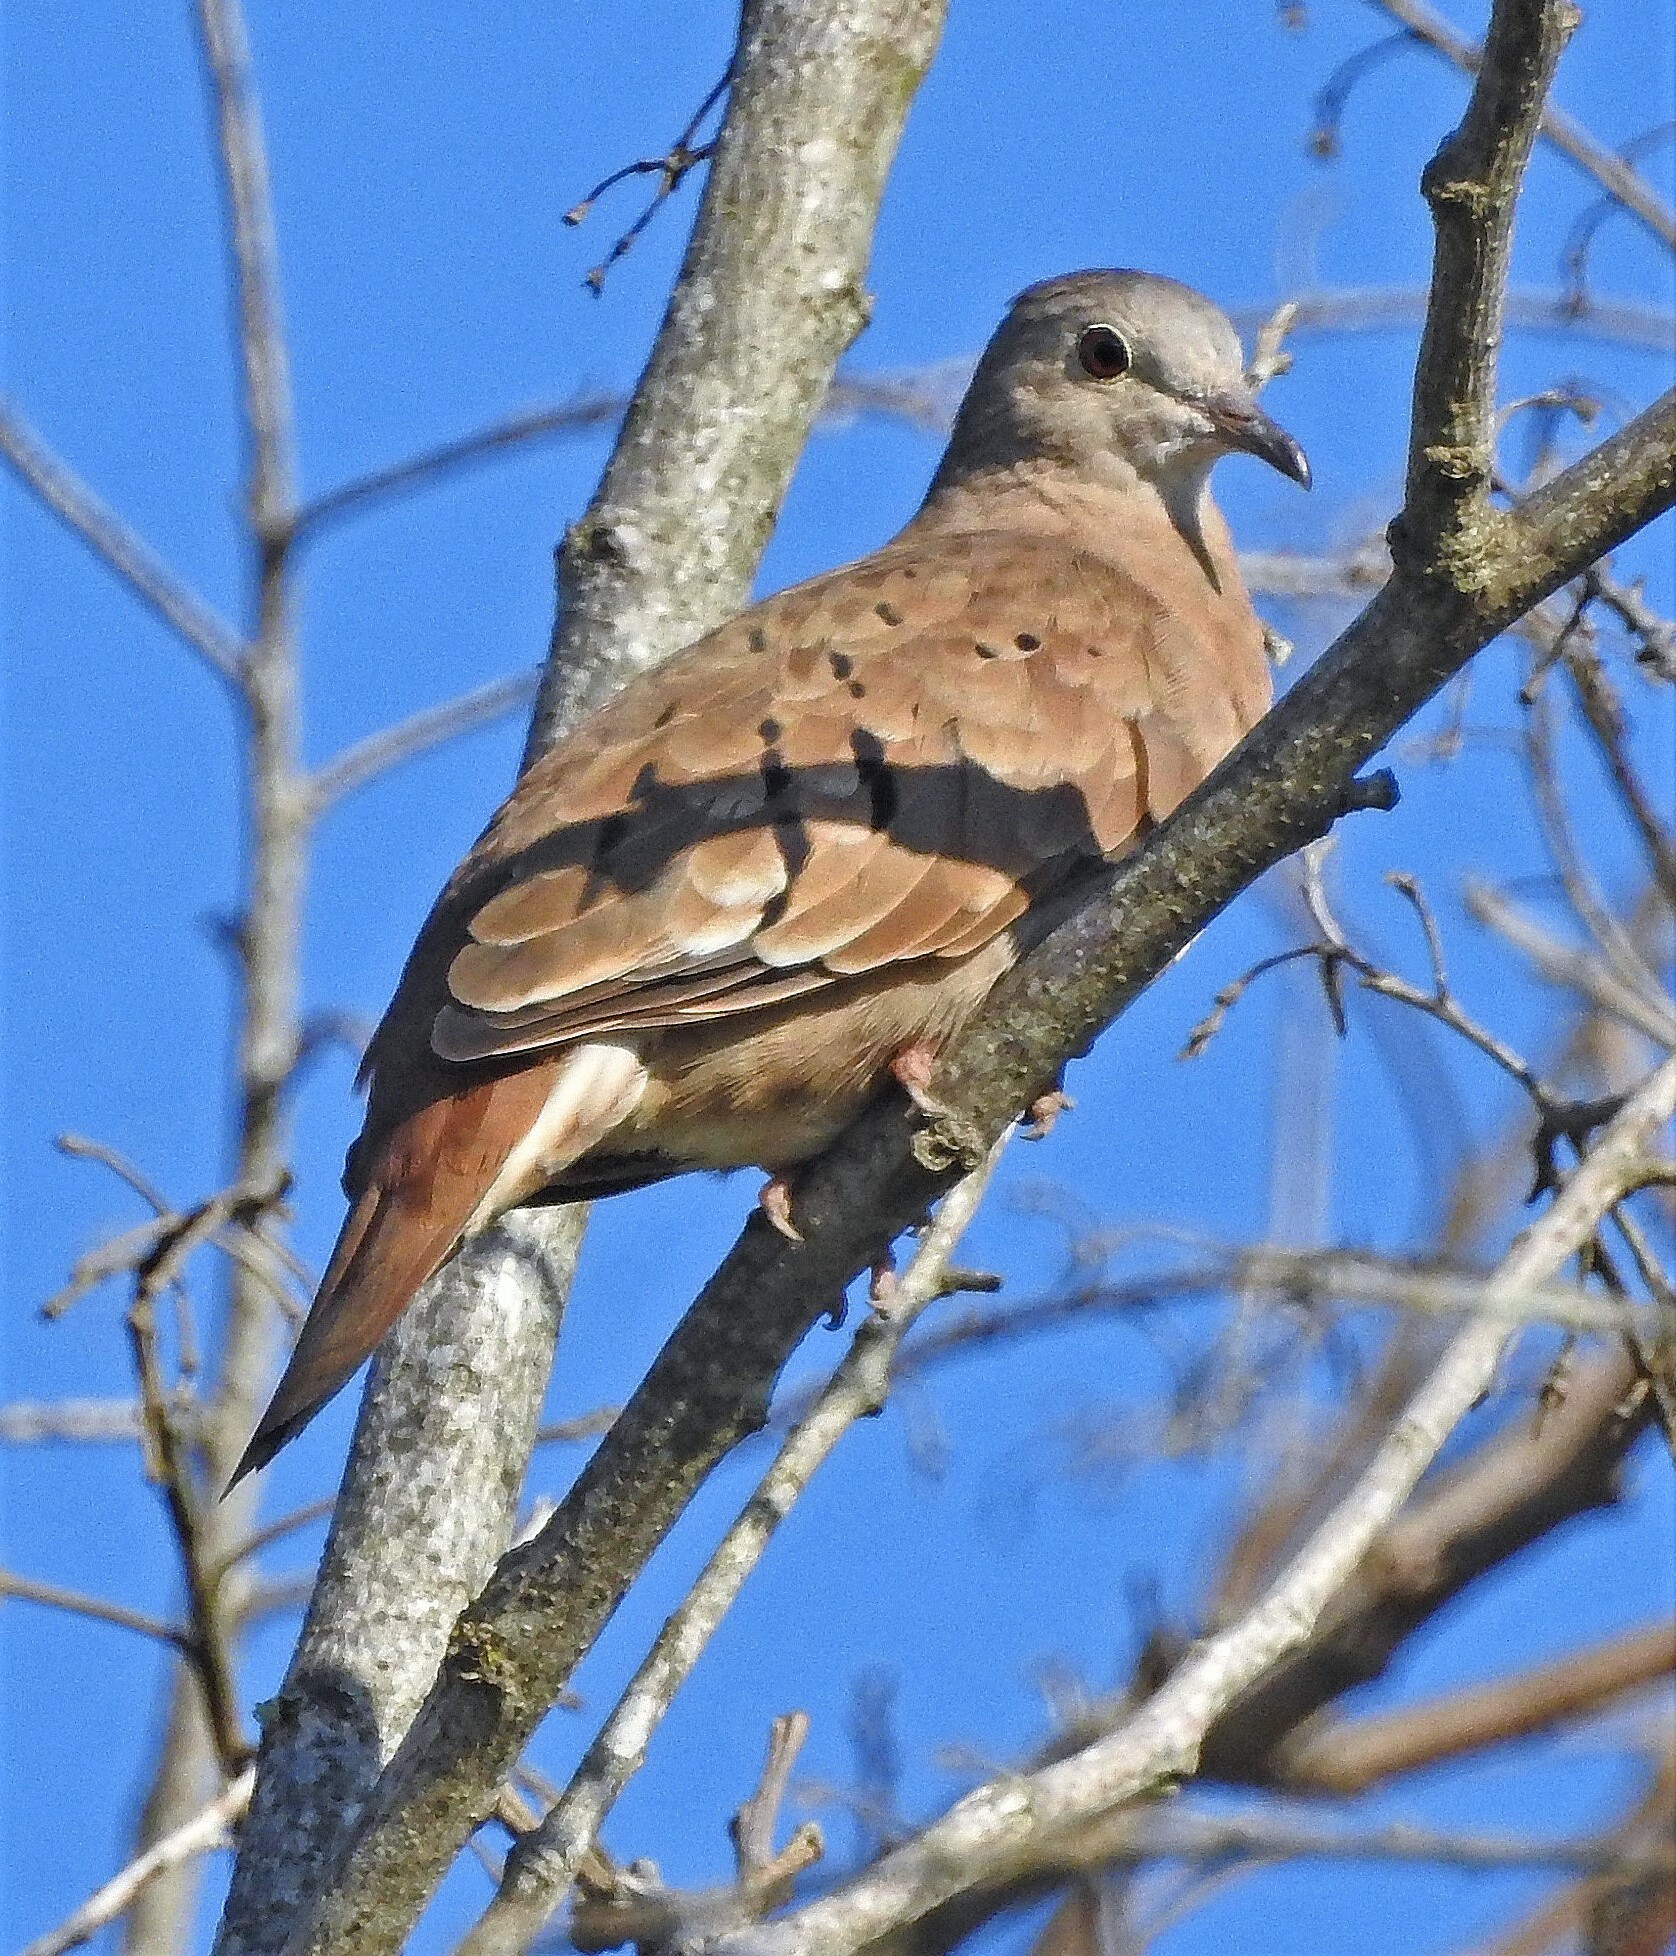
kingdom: Animalia
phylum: Chordata
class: Aves
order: Columbiformes
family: Columbidae
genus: Columbina
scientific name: Columbina talpacoti
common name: Ruddy ground dove
